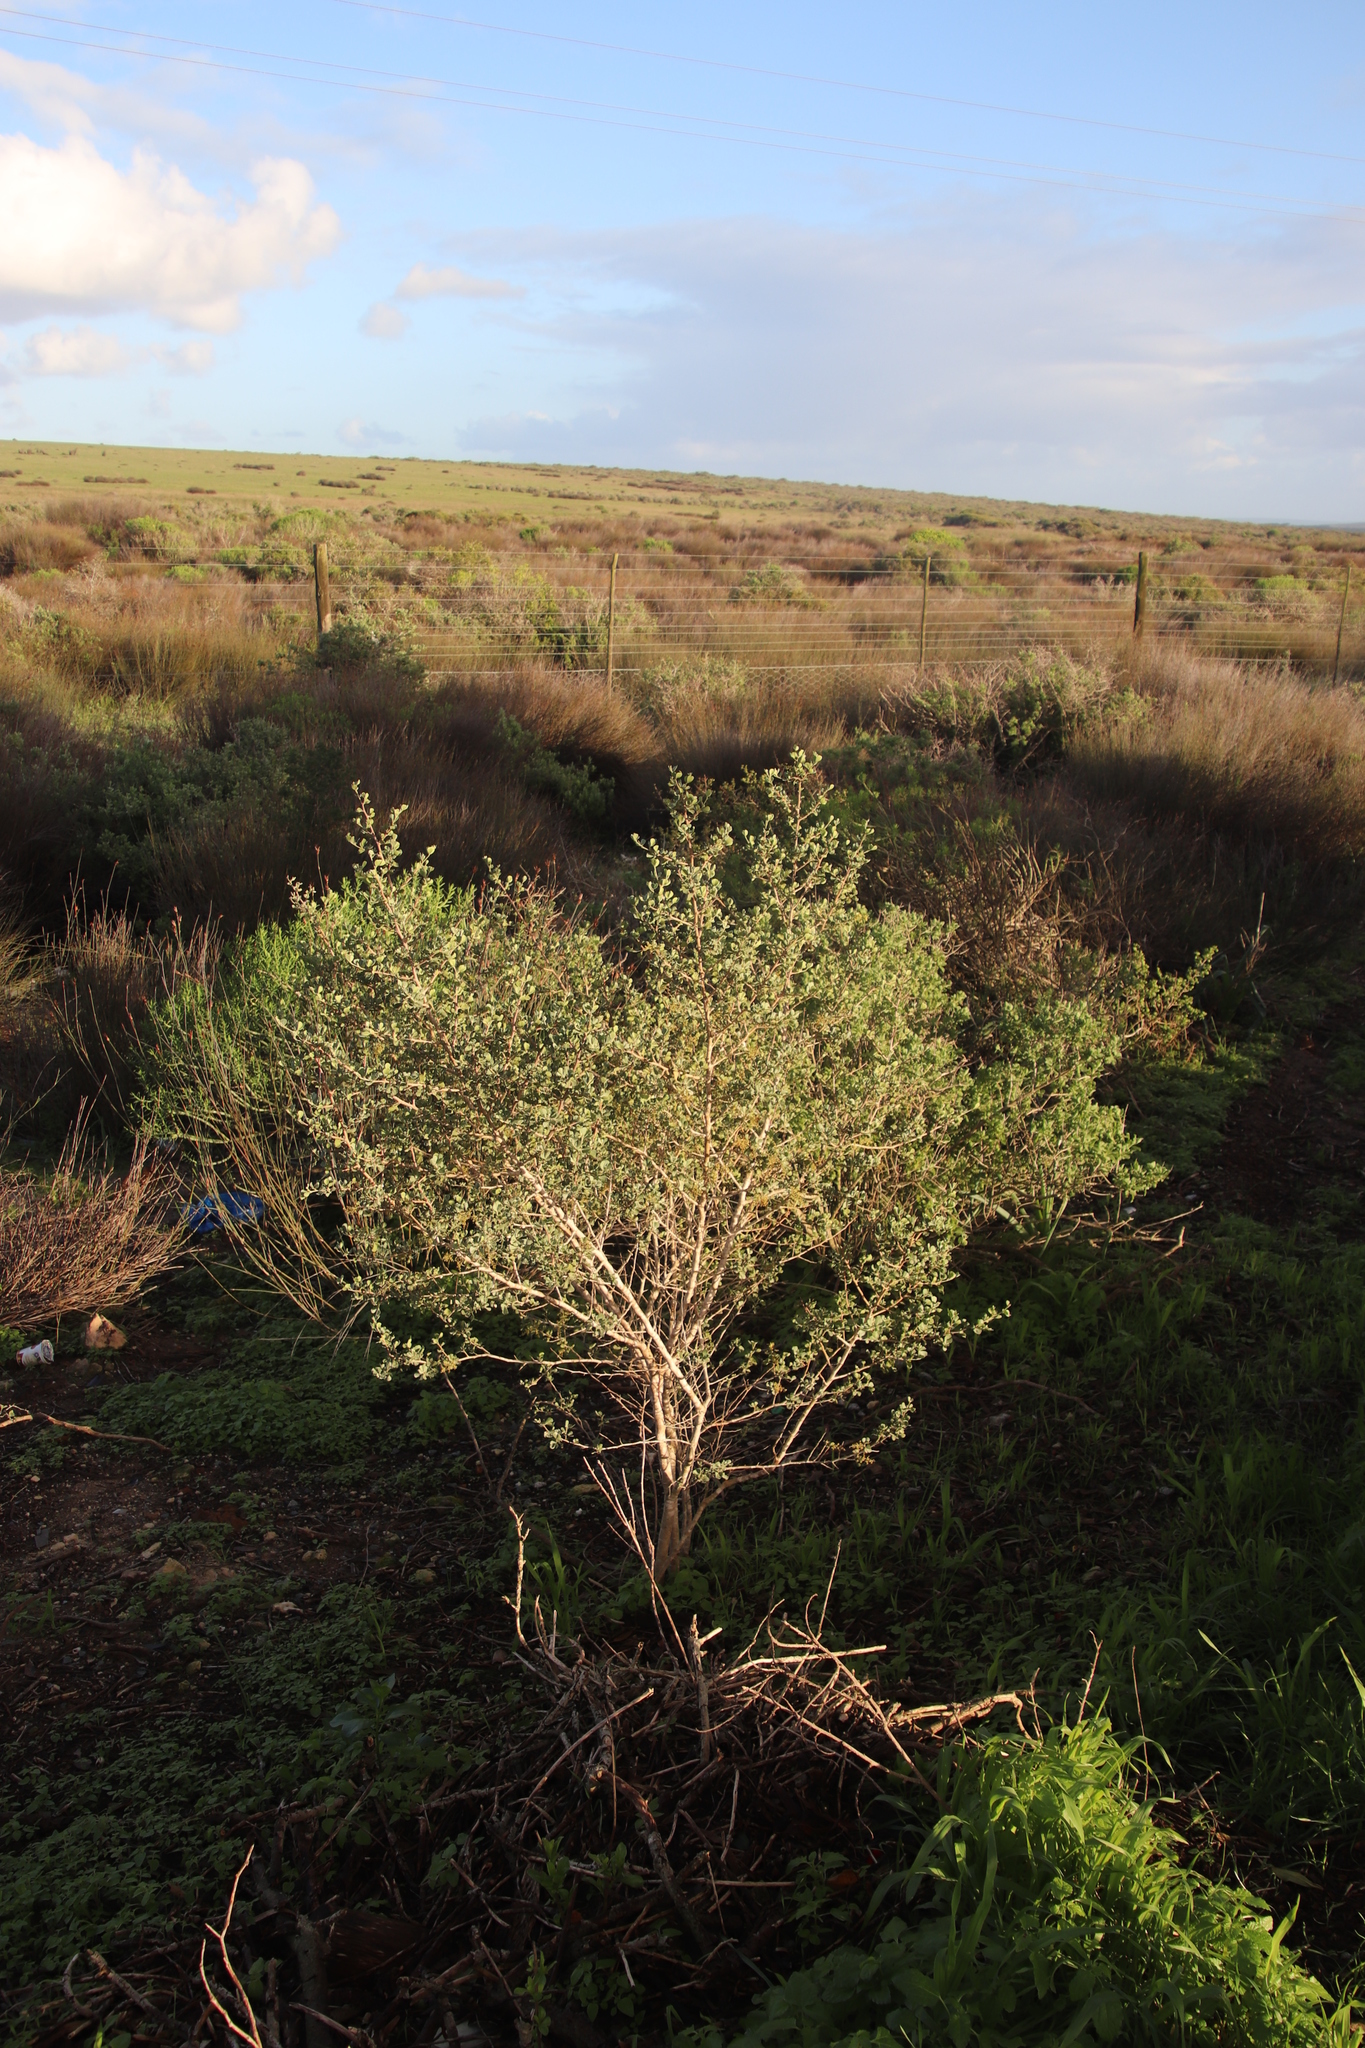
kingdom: Plantae
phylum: Tracheophyta
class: Magnoliopsida
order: Sapindales
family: Anacardiaceae
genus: Searsia
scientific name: Searsia glauca
